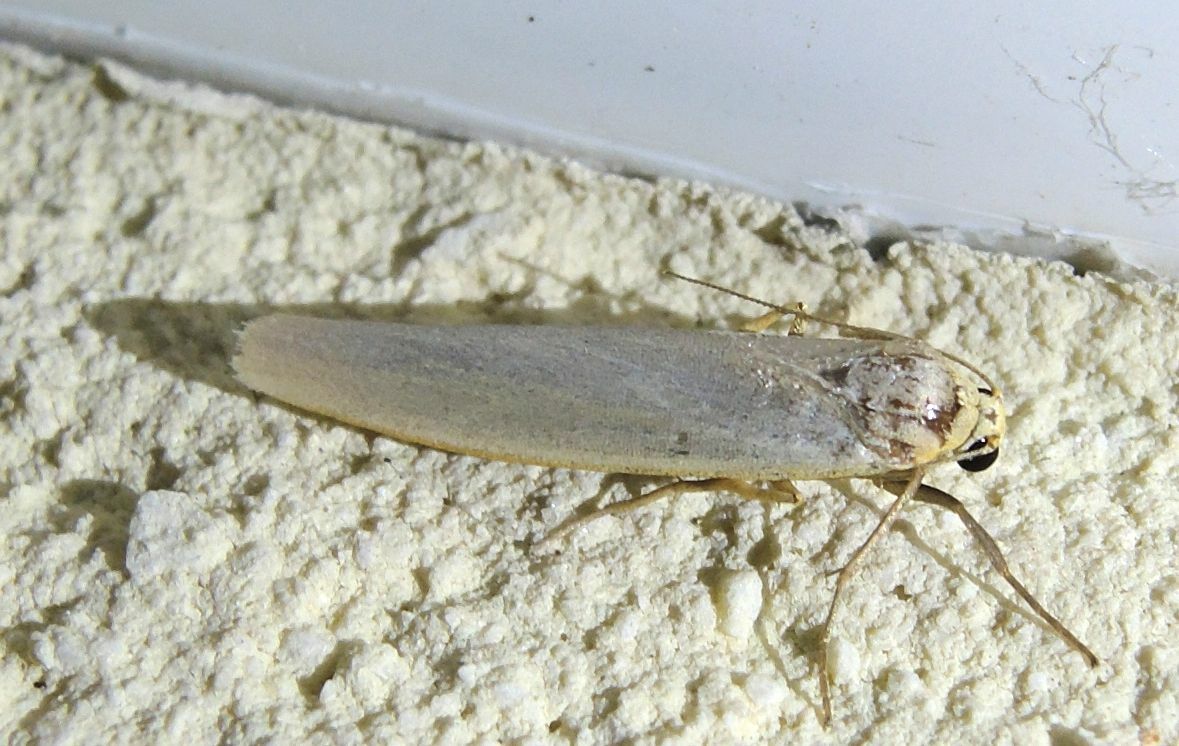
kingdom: Animalia
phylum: Arthropoda
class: Insecta
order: Lepidoptera
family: Erebidae
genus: Eilema
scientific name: Eilema caniola
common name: Hoary footman
